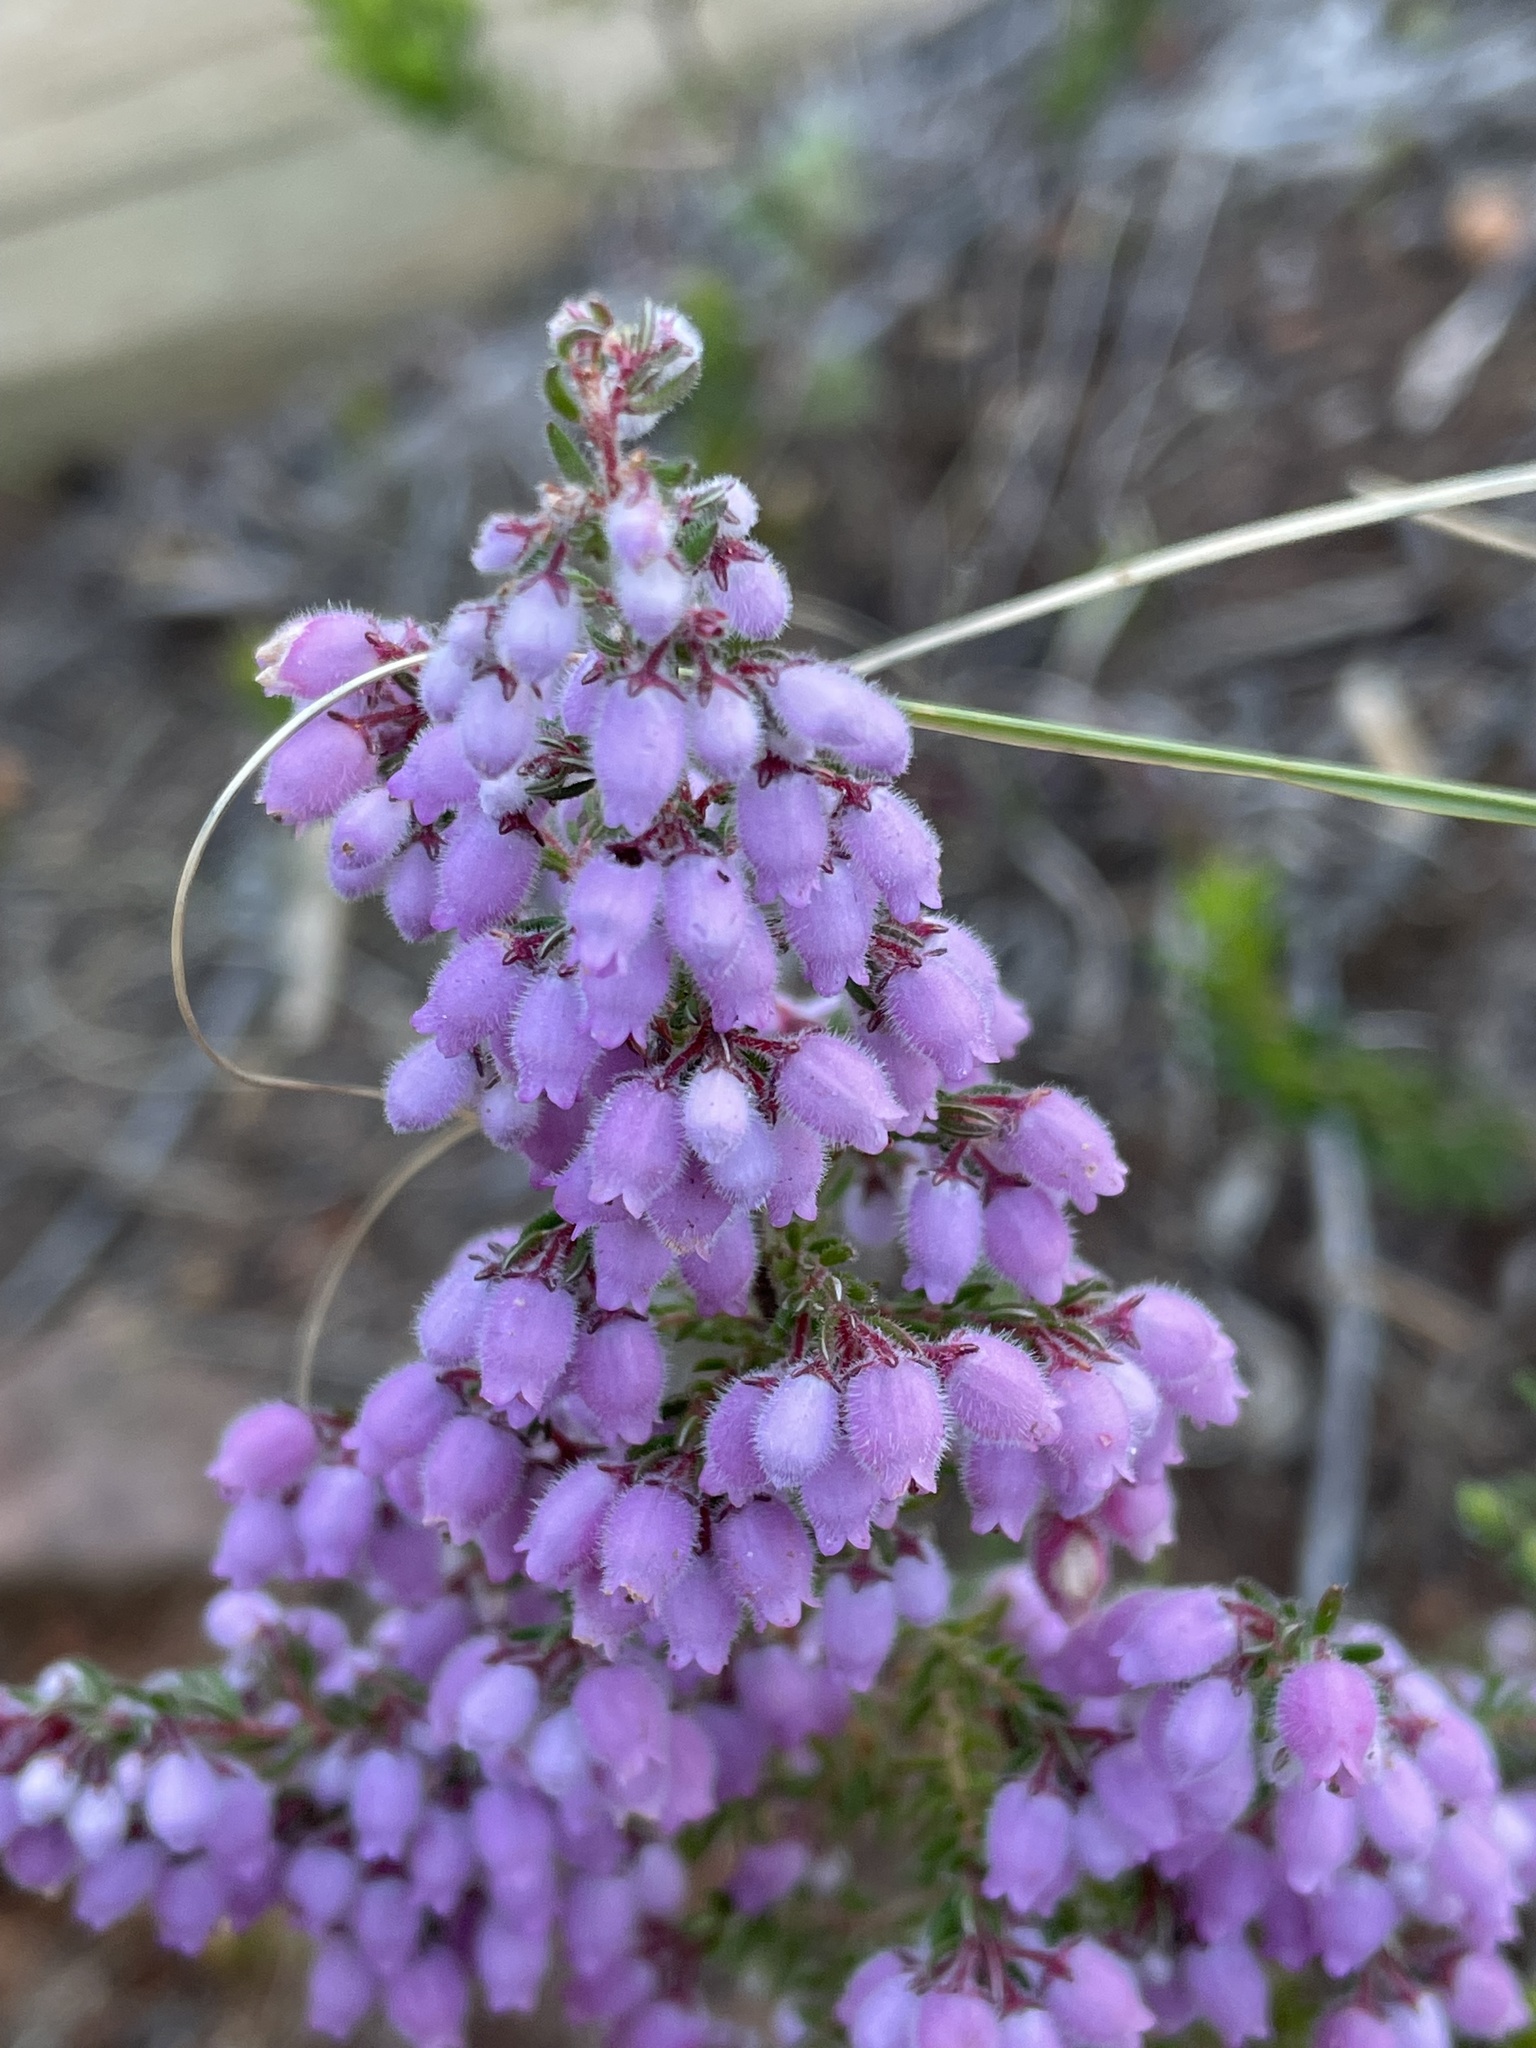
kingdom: Plantae
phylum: Tracheophyta
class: Magnoliopsida
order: Ericales
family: Ericaceae
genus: Erica
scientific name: Erica hirtiflora
